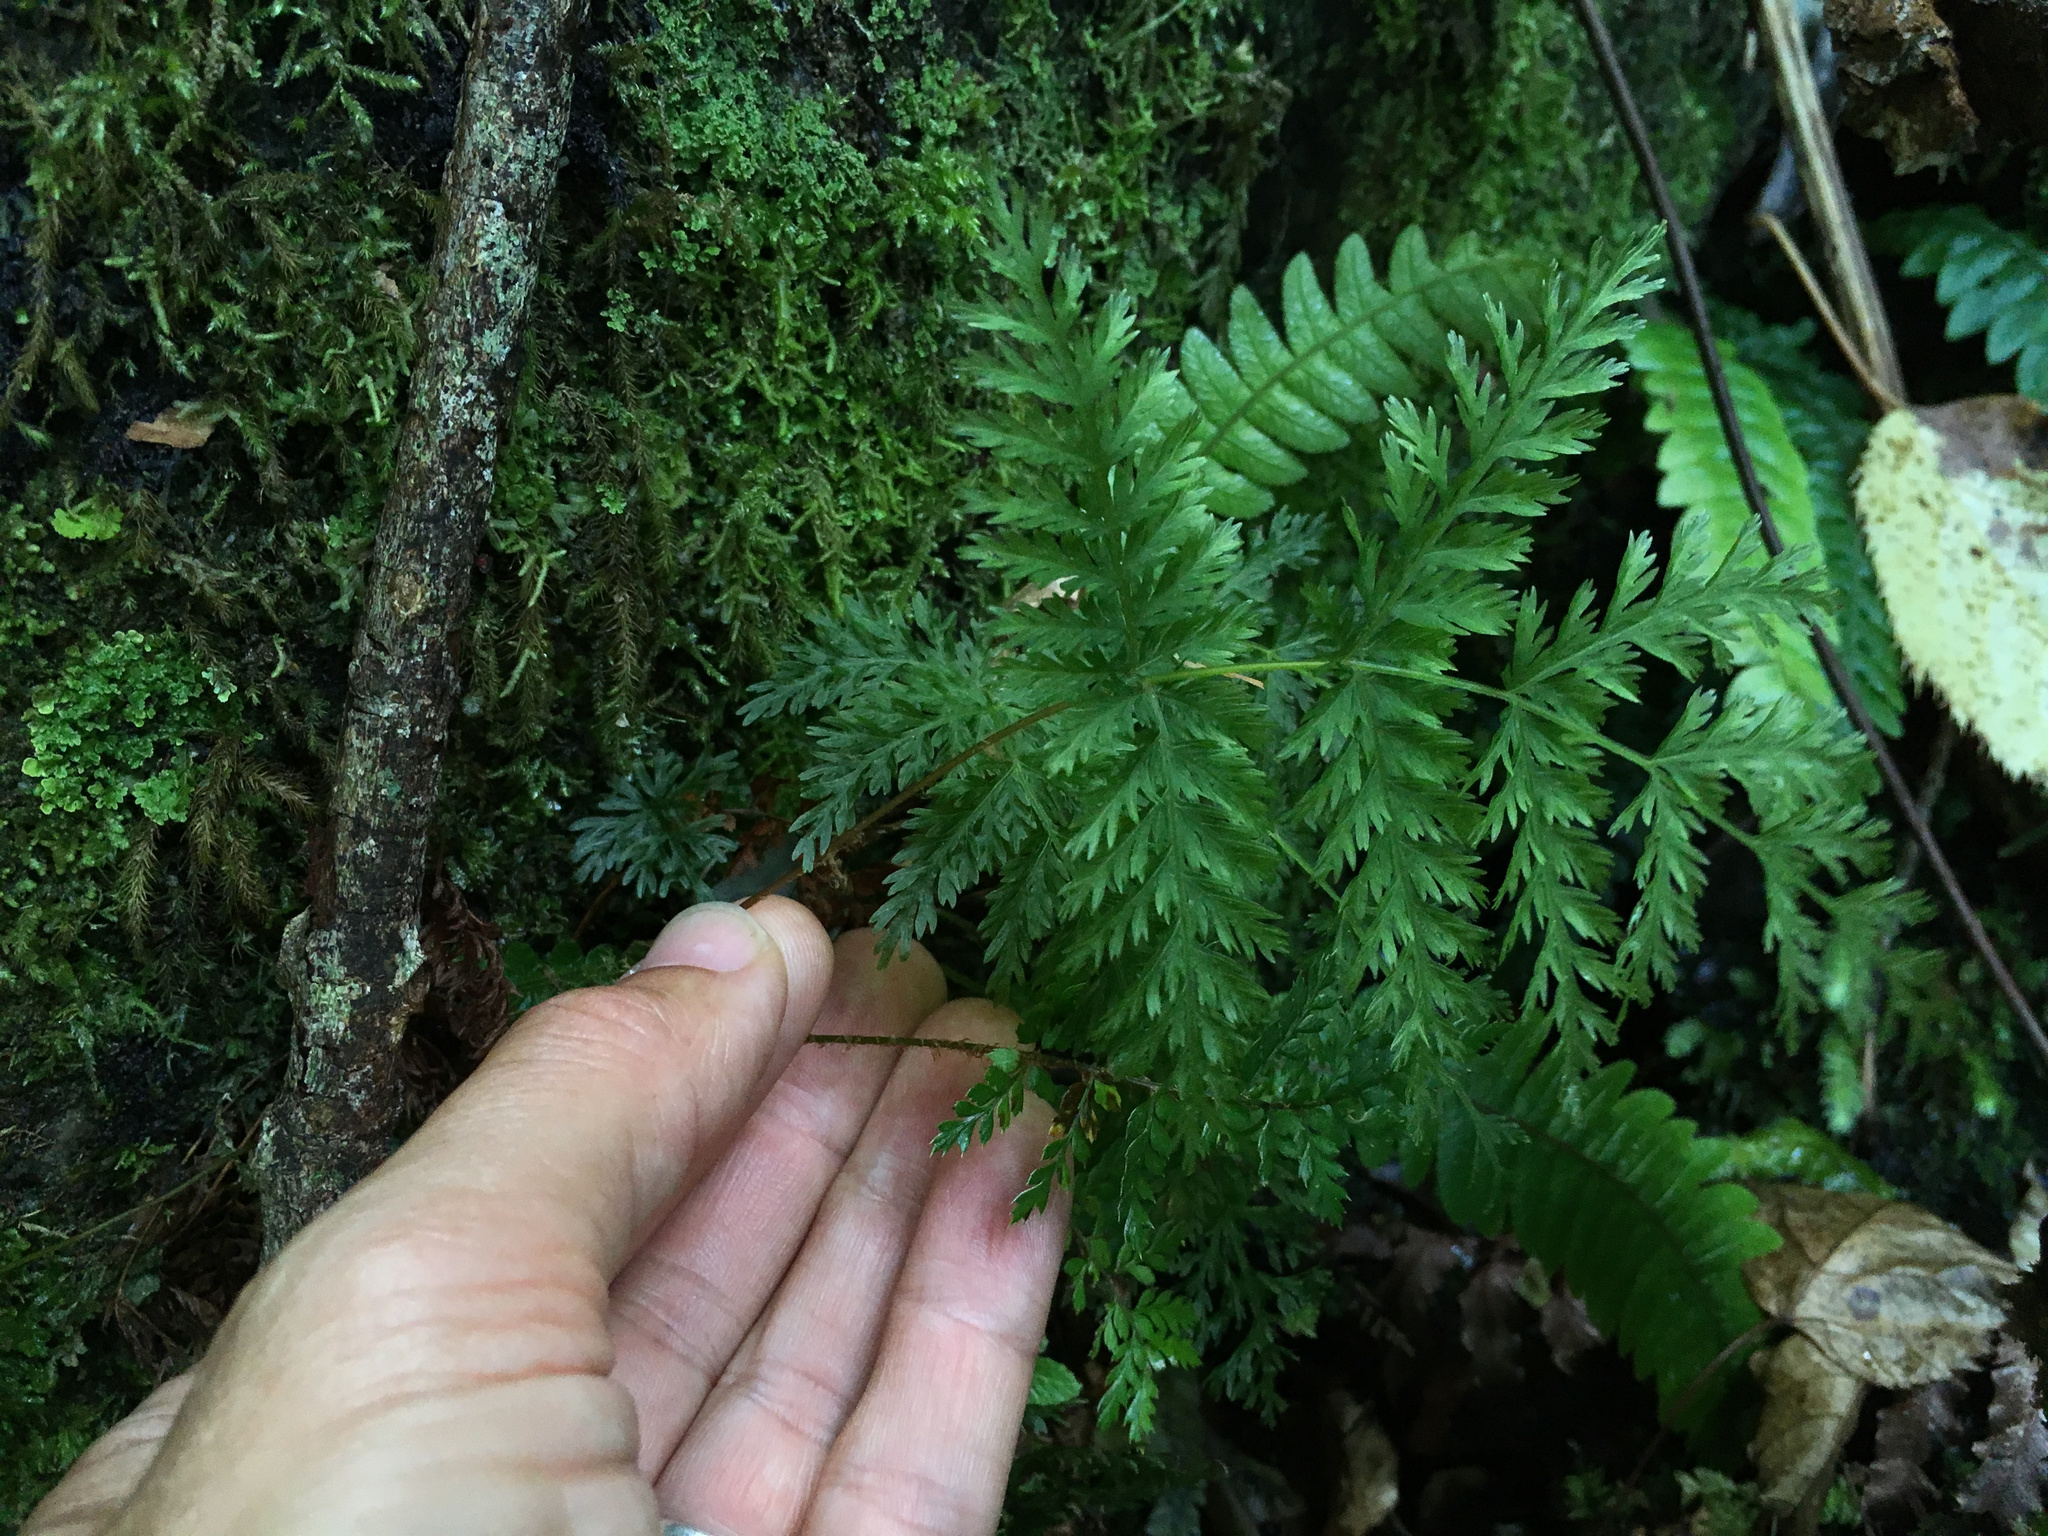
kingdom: Plantae
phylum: Tracheophyta
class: Polypodiopsida
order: Osmundales
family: Osmundaceae
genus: Leptopteris
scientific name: Leptopteris hymenophylloides
